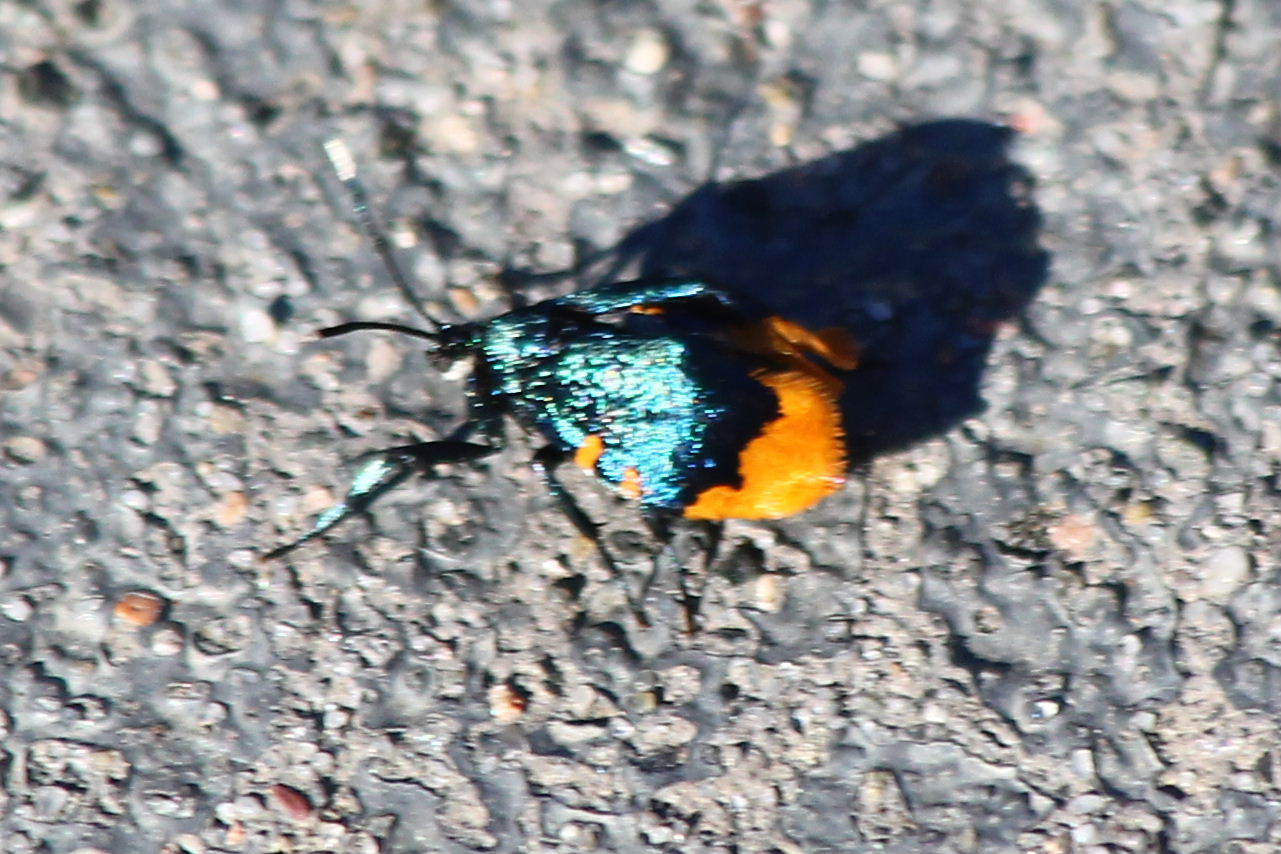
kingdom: Animalia
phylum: Arthropoda
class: Insecta
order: Lepidoptera
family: Psychidae
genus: Cebysa
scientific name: Cebysa leucotelus
